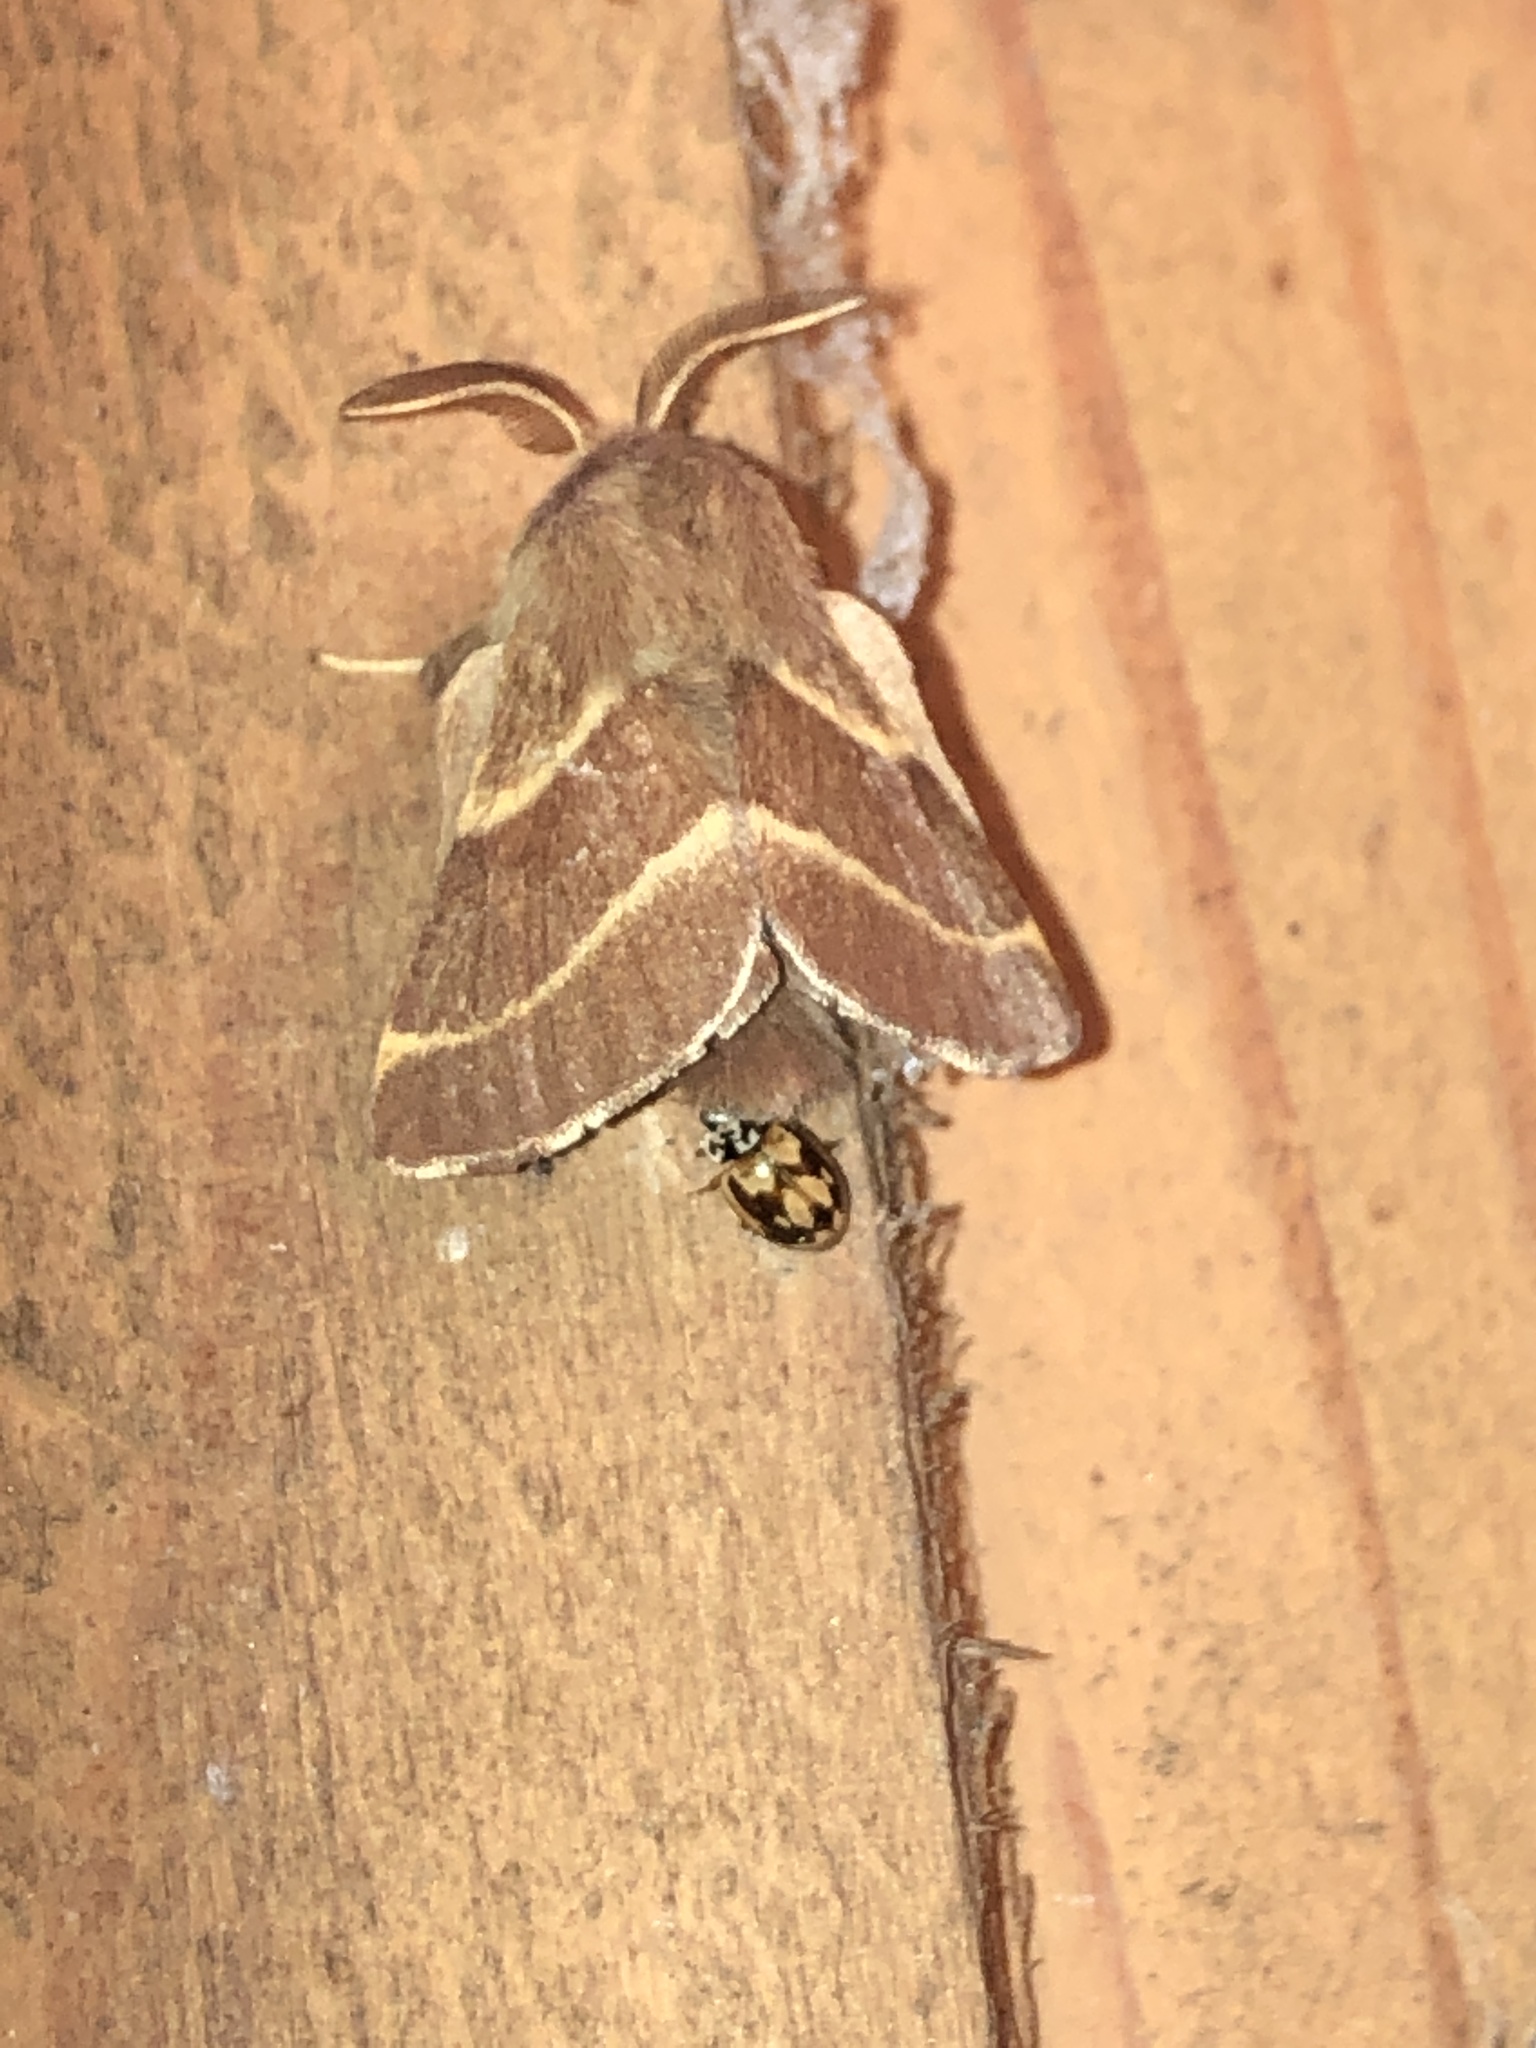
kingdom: Animalia
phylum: Arthropoda
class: Insecta
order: Coleoptera
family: Coccinellidae
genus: Mulsantina
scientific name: Mulsantina picta
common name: Painted ladybird
